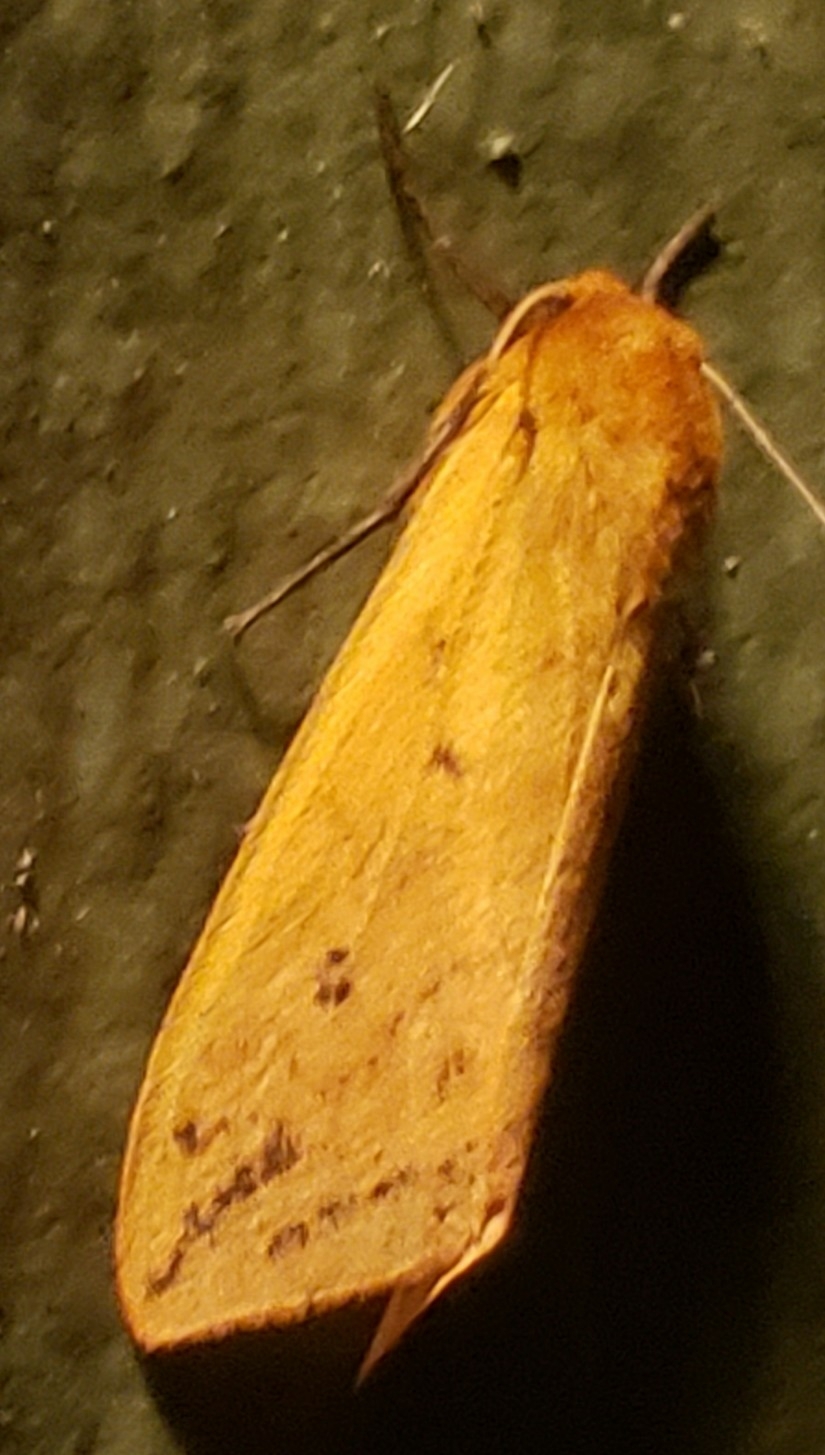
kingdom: Animalia
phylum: Arthropoda
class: Insecta
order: Lepidoptera
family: Erebidae
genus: Pyrrharctia
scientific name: Pyrrharctia isabella
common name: Isabella tiger moth
